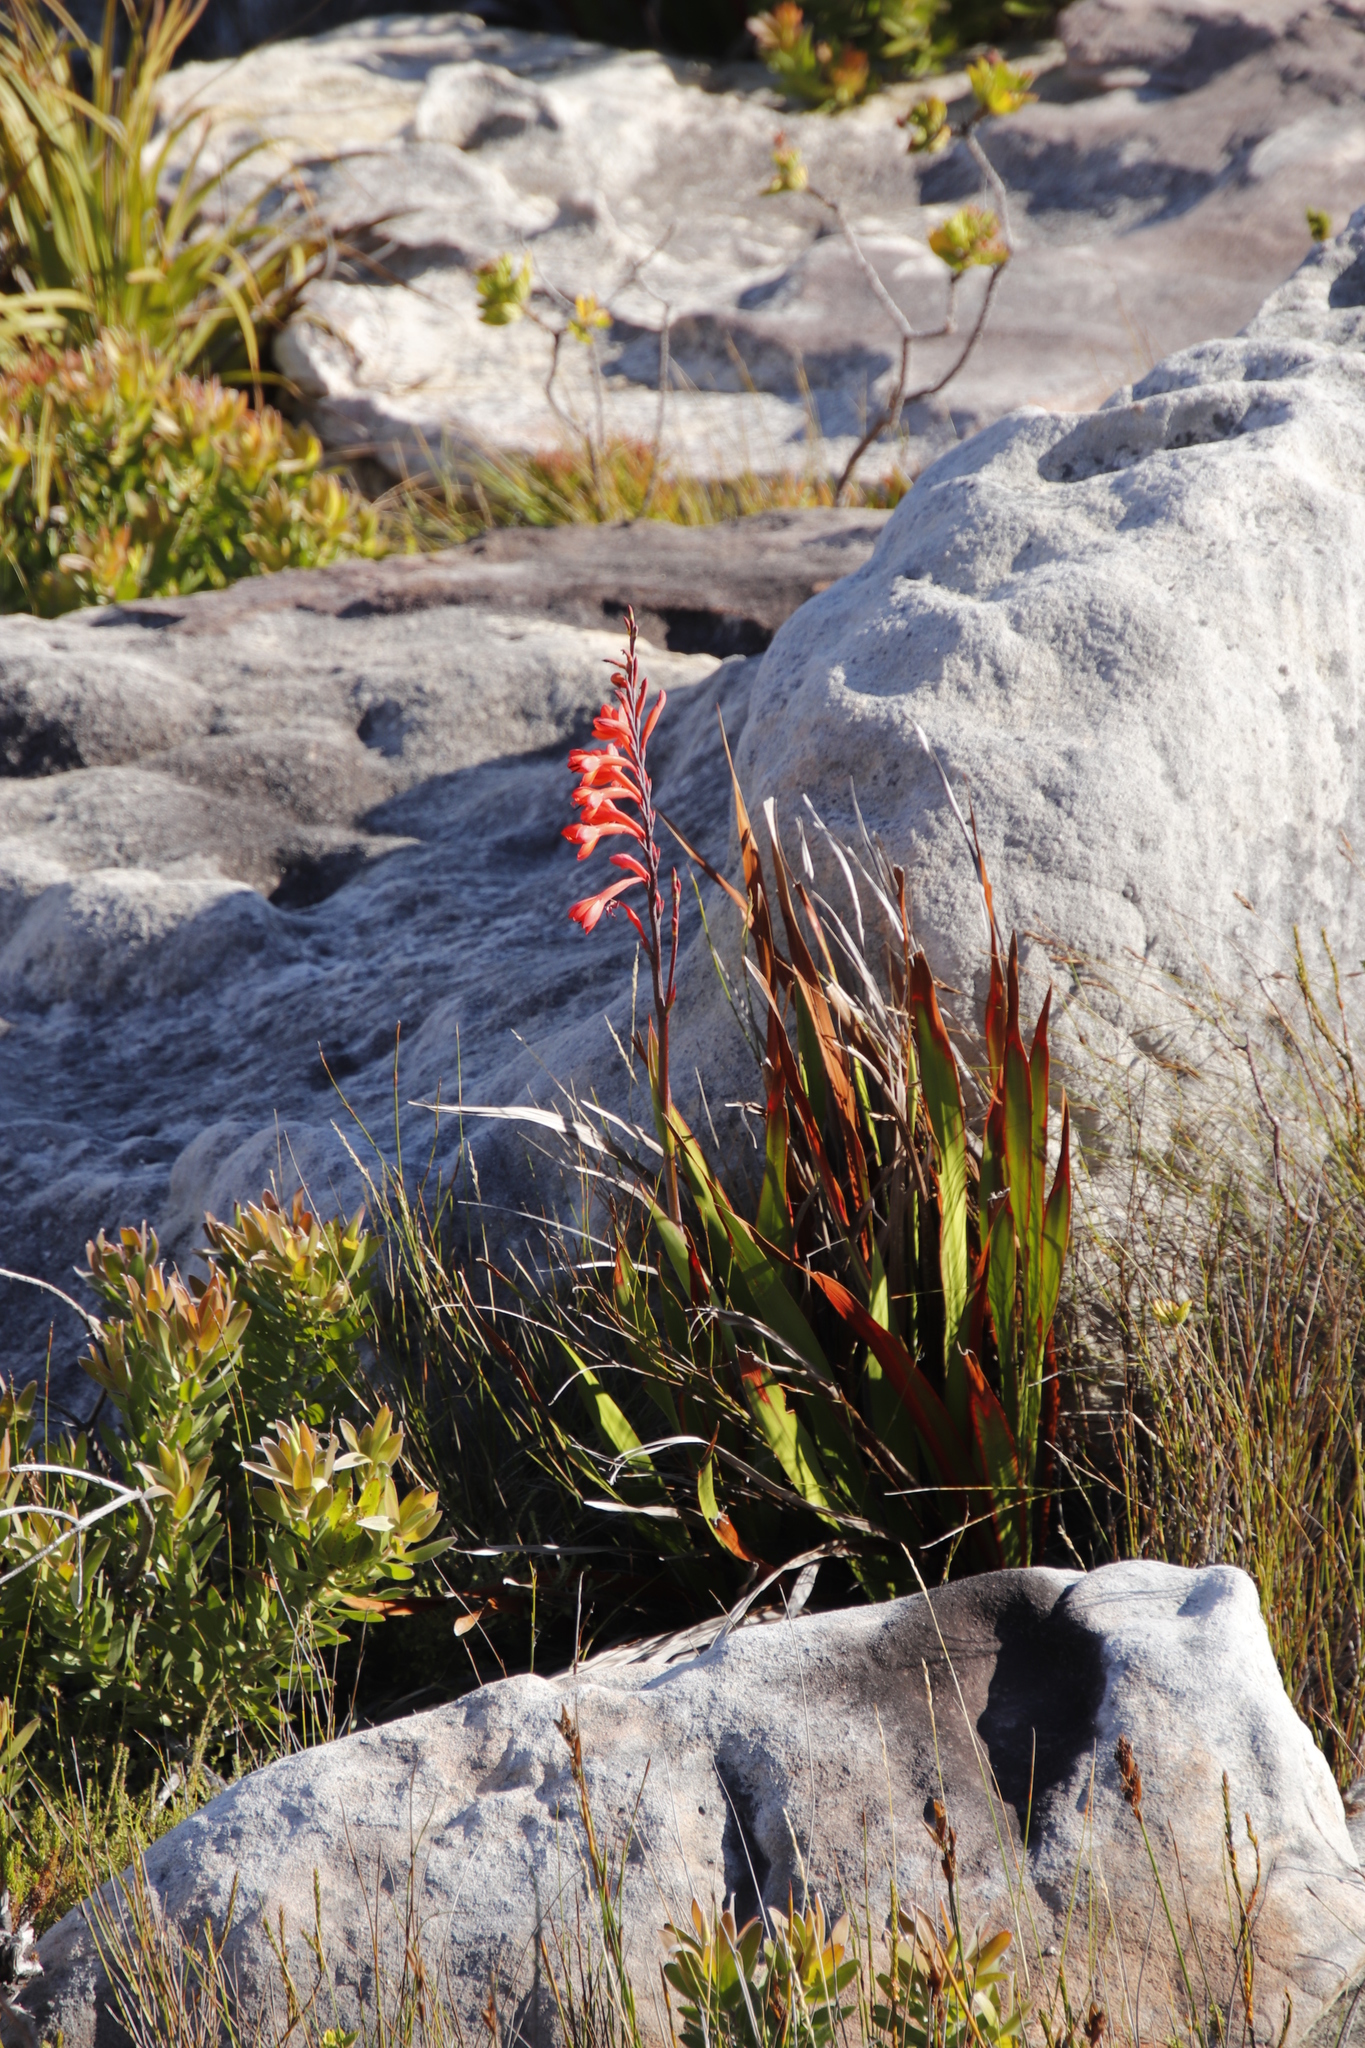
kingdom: Plantae
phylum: Tracheophyta
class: Liliopsida
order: Asparagales
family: Iridaceae
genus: Watsonia
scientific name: Watsonia tabularis
